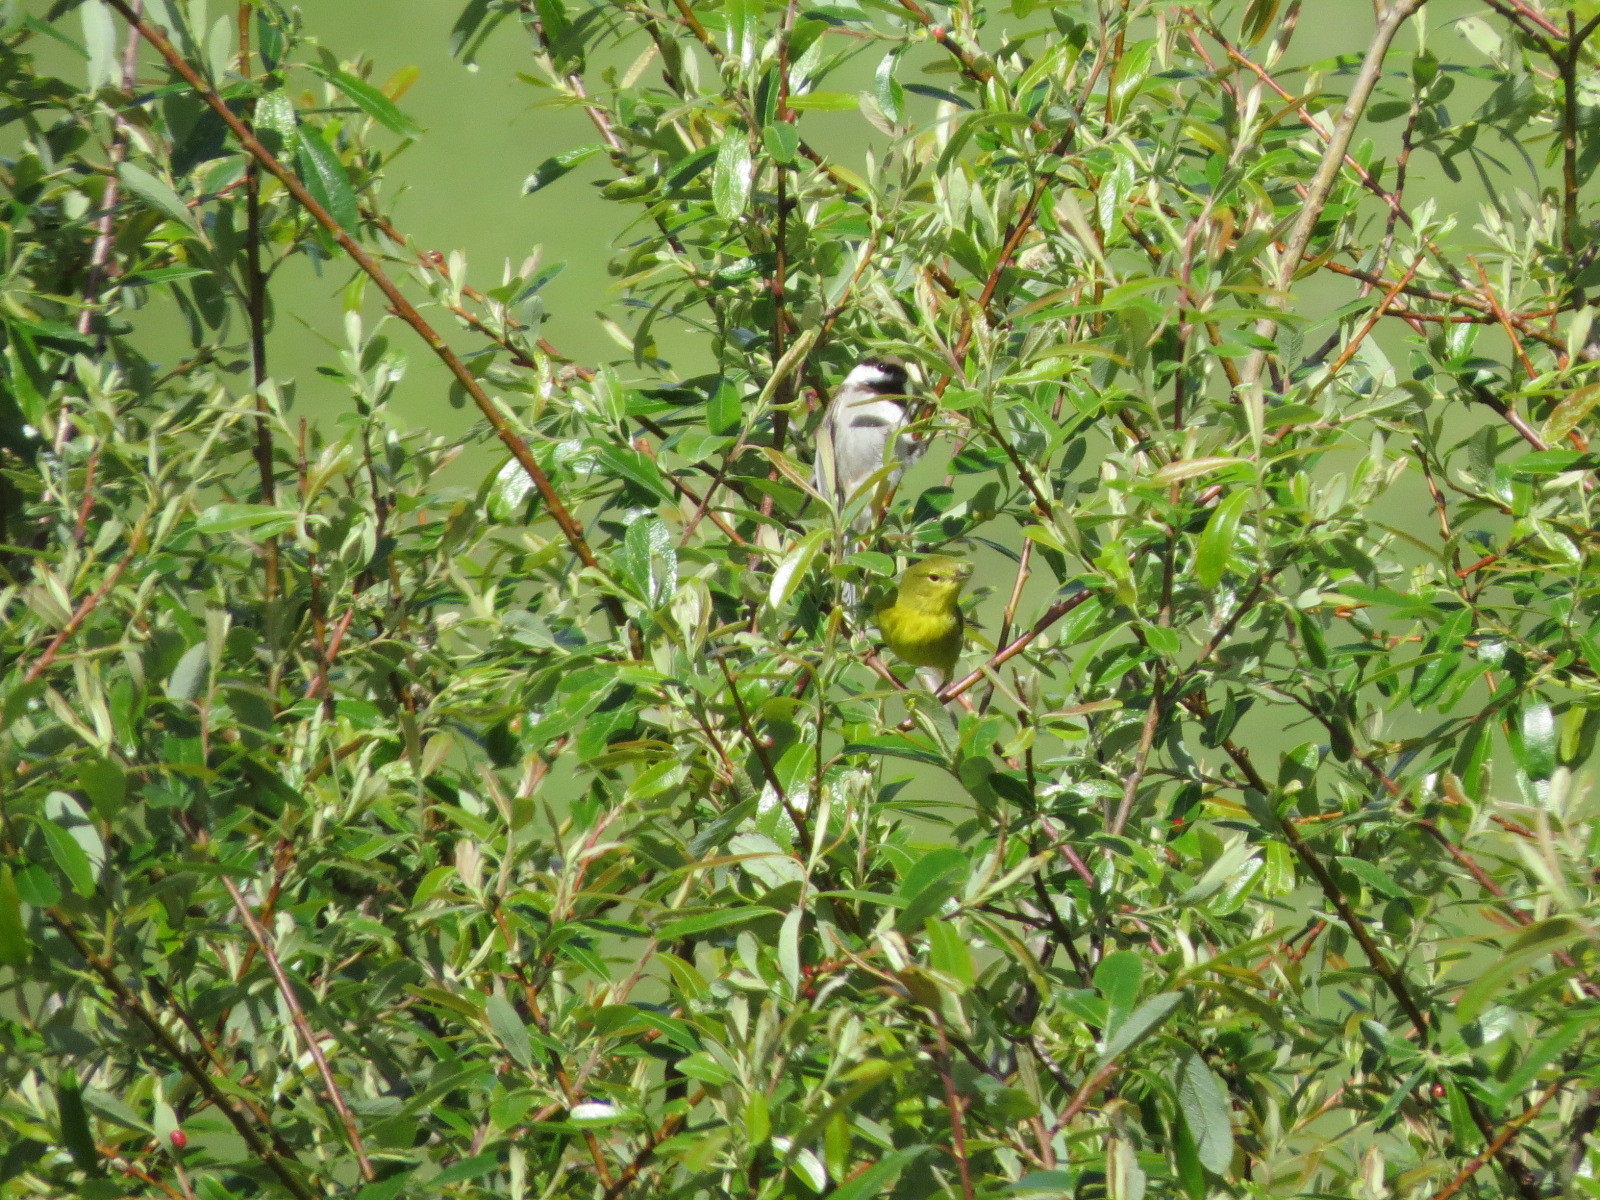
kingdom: Animalia
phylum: Chordata
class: Aves
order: Passeriformes
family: Paridae
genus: Poecile
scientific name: Poecile rufescens
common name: Chestnut-backed chickadee
